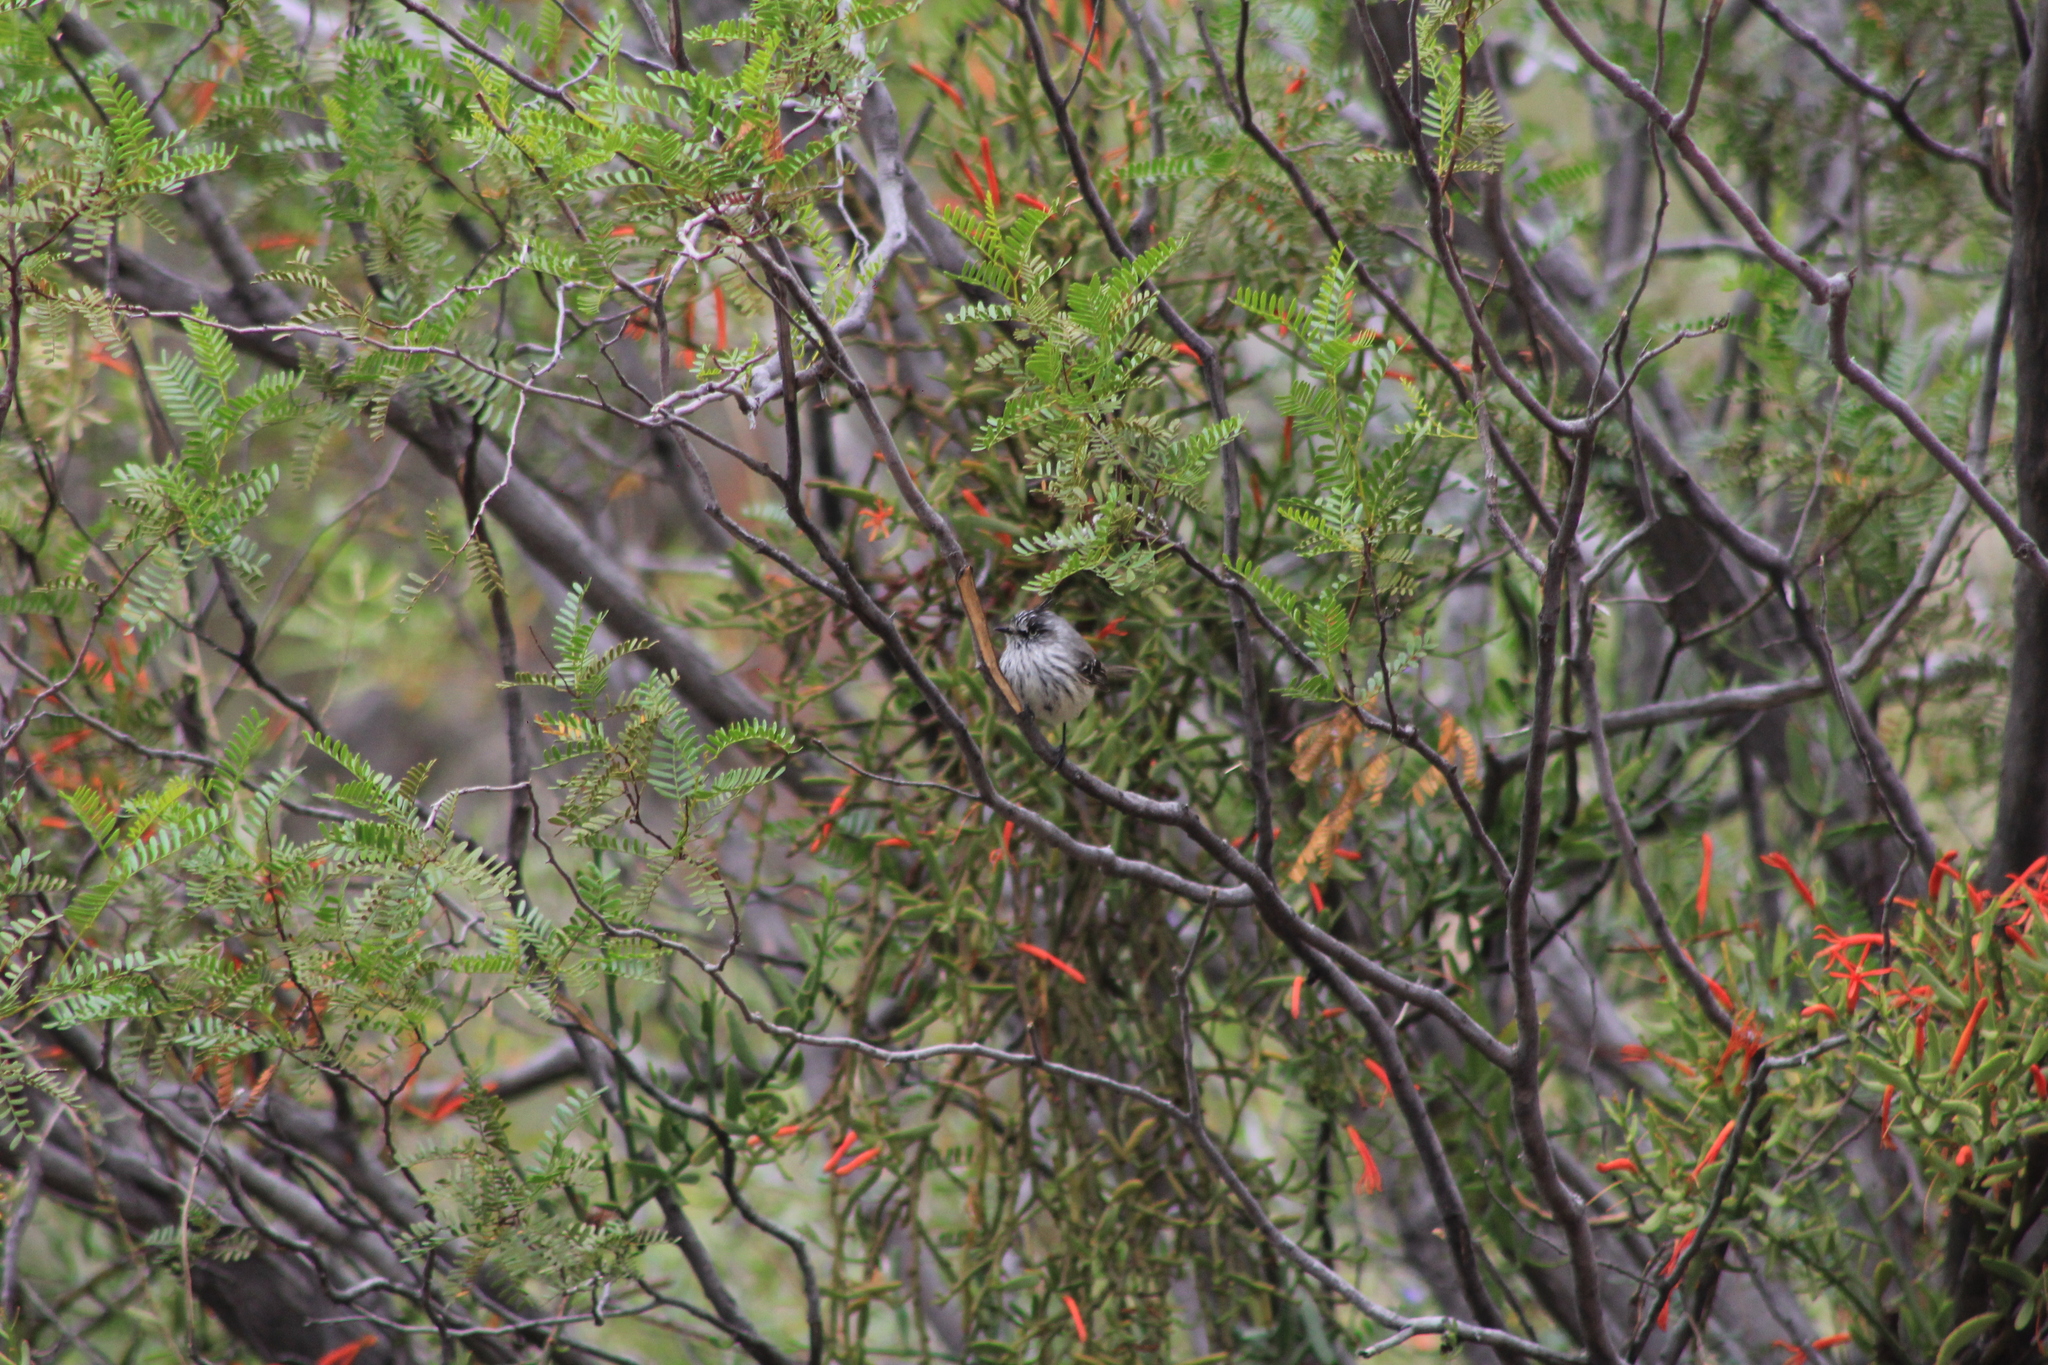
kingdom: Animalia
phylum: Chordata
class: Aves
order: Passeriformes
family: Tyrannidae
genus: Anairetes
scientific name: Anairetes parulus
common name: Tufted tit-tyrant
